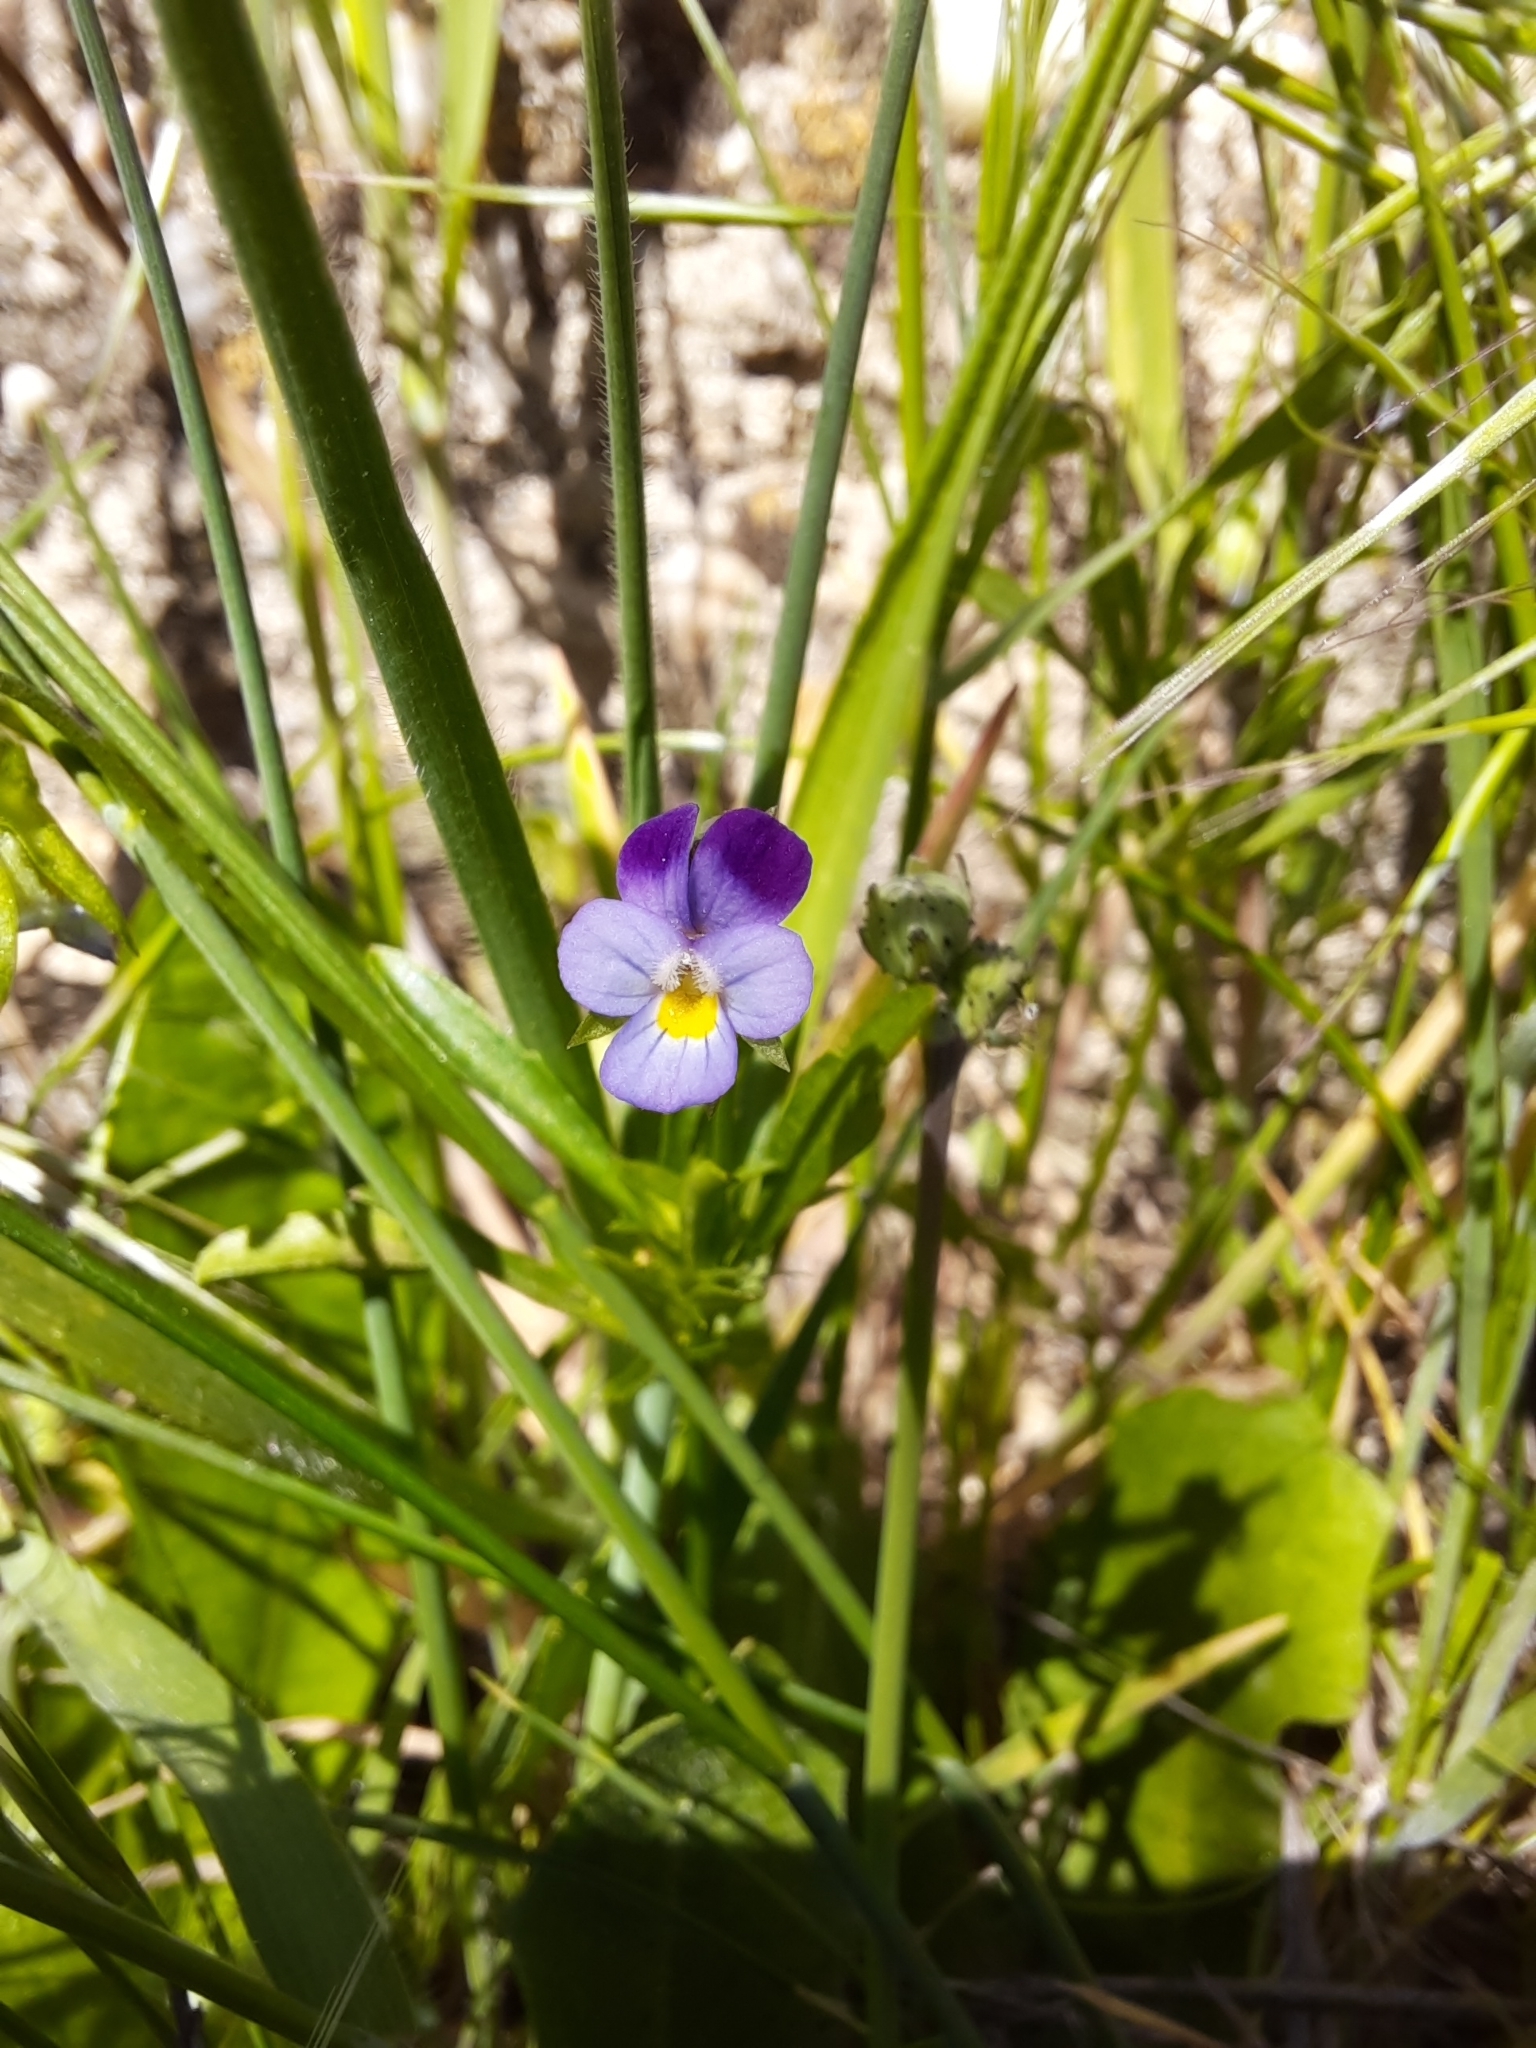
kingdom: Plantae
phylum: Tracheophyta
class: Magnoliopsida
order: Malpighiales
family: Violaceae
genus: Viola
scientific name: Viola kitaibeliana
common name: Dwarf pansy
